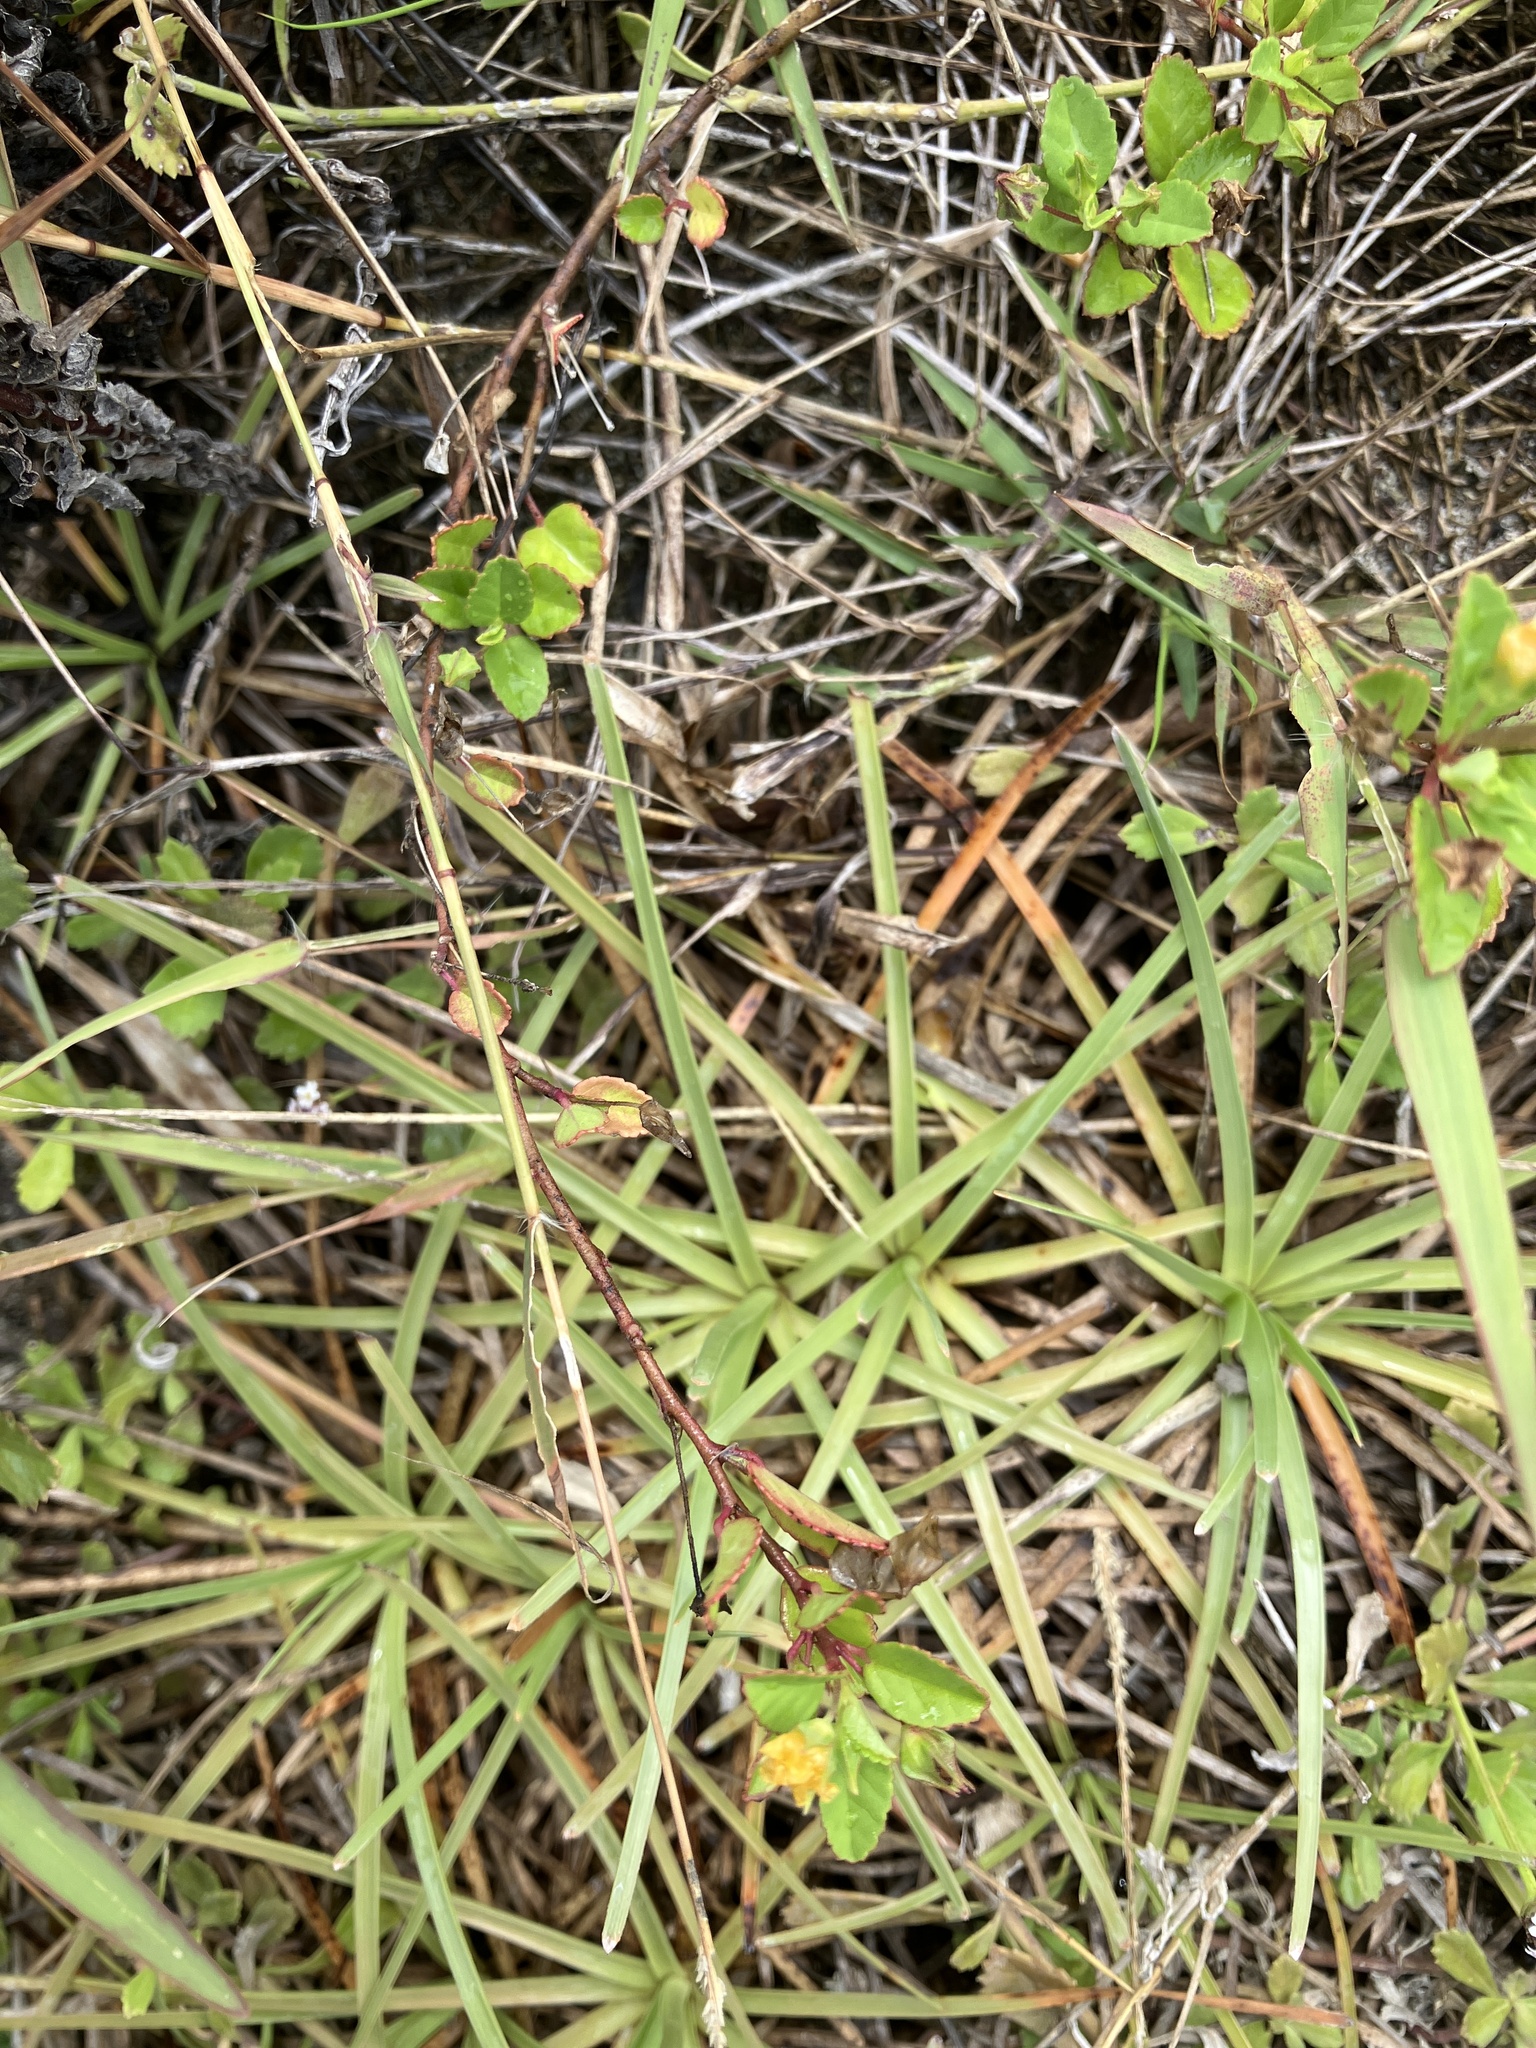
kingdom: Plantae
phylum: Tracheophyta
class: Magnoliopsida
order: Malvales
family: Malvaceae
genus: Sida
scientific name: Sida pusilla
